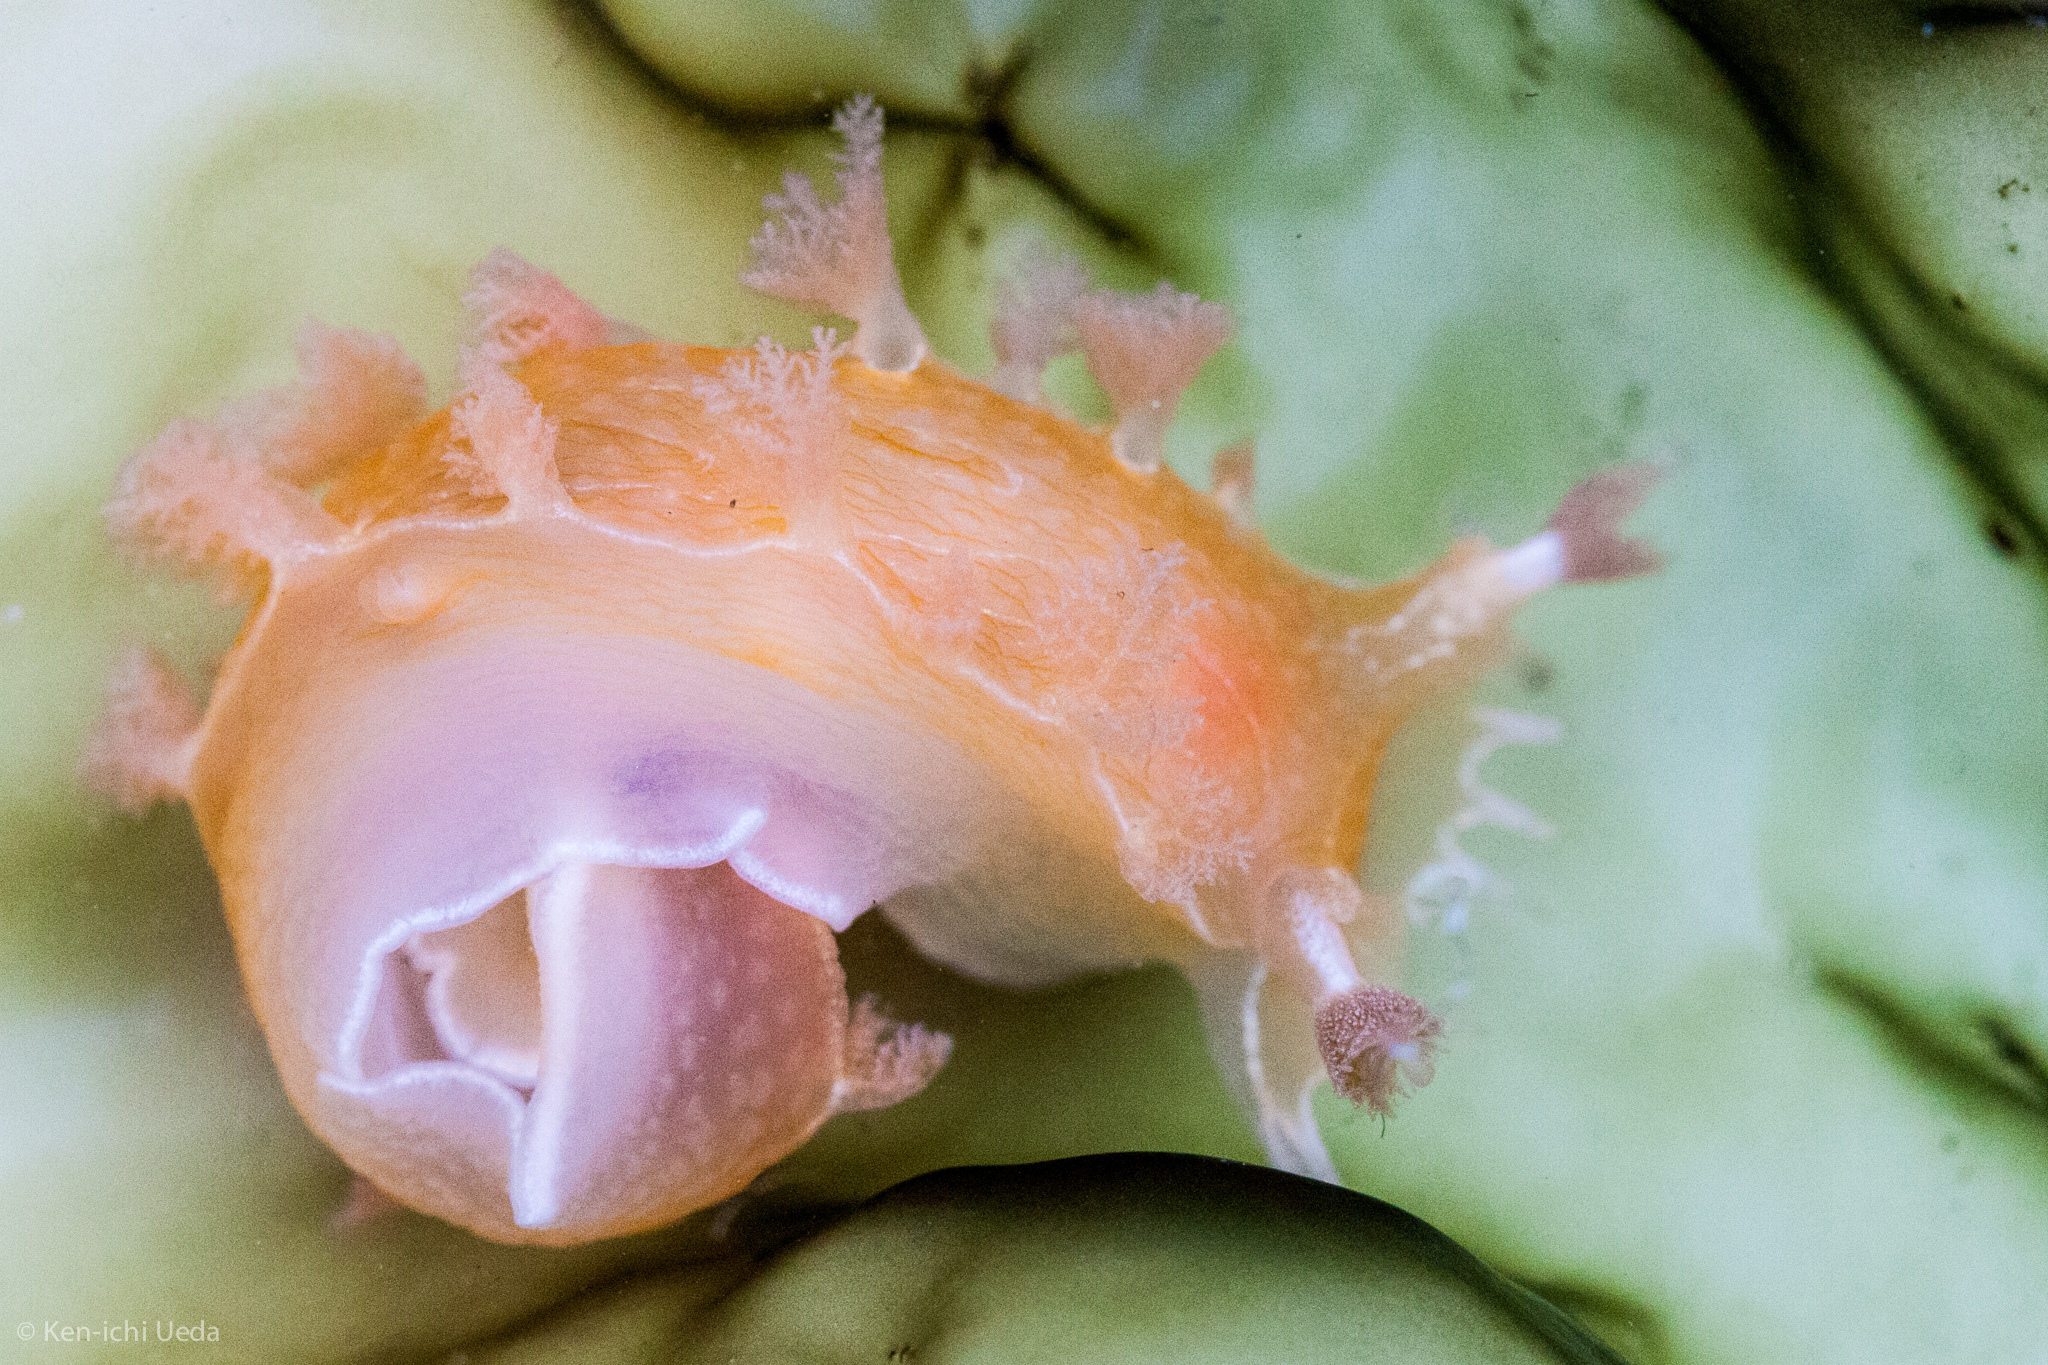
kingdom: Animalia
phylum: Mollusca
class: Gastropoda
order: Nudibranchia
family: Tritoniidae
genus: Tritonia
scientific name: Tritonia festiva
